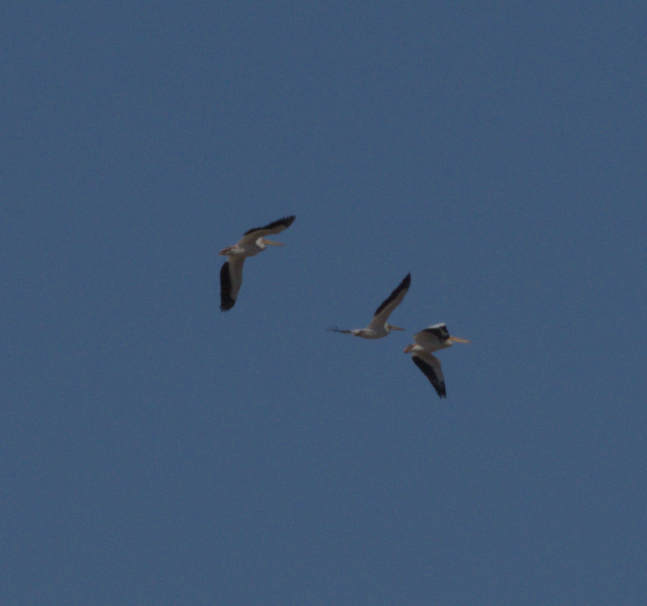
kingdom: Animalia
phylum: Chordata
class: Aves
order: Pelecaniformes
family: Pelecanidae
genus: Pelecanus
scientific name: Pelecanus erythrorhynchos
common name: American white pelican
